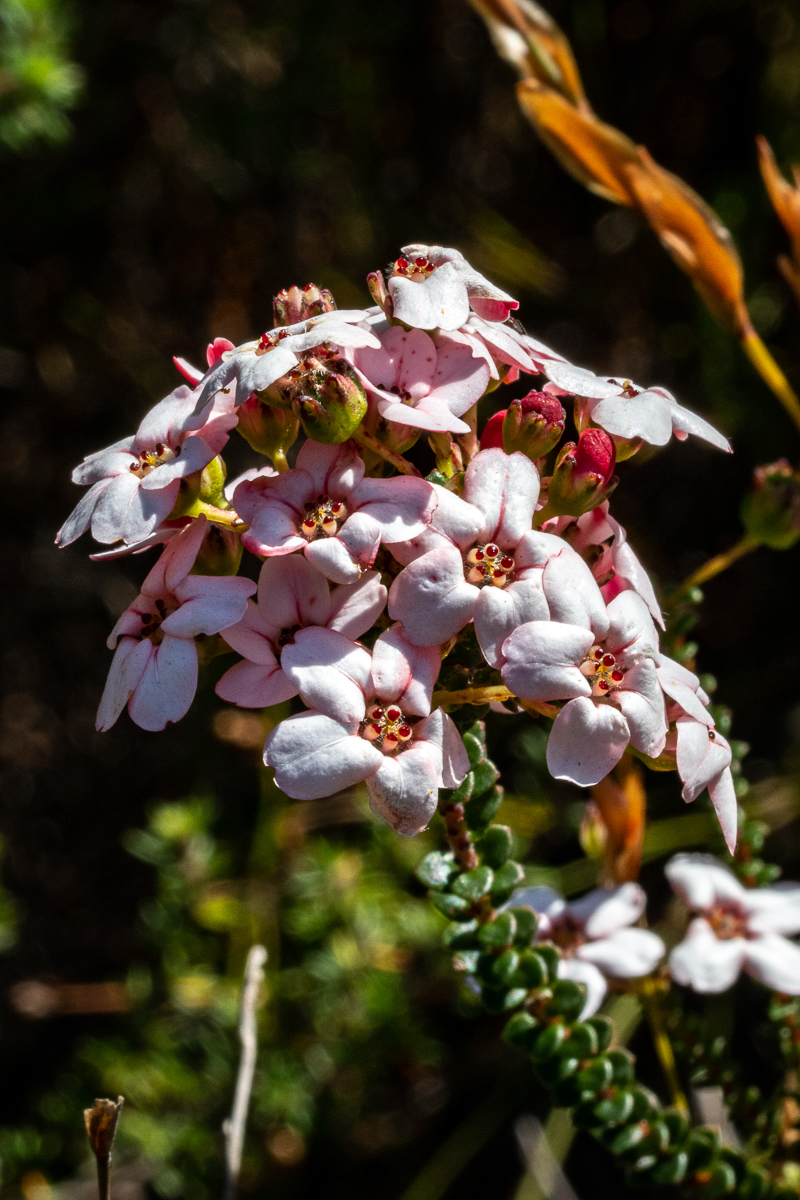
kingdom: Plantae
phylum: Tracheophyta
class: Magnoliopsida
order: Sapindales
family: Rutaceae
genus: Adenandra
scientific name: Adenandra brachyphylla
